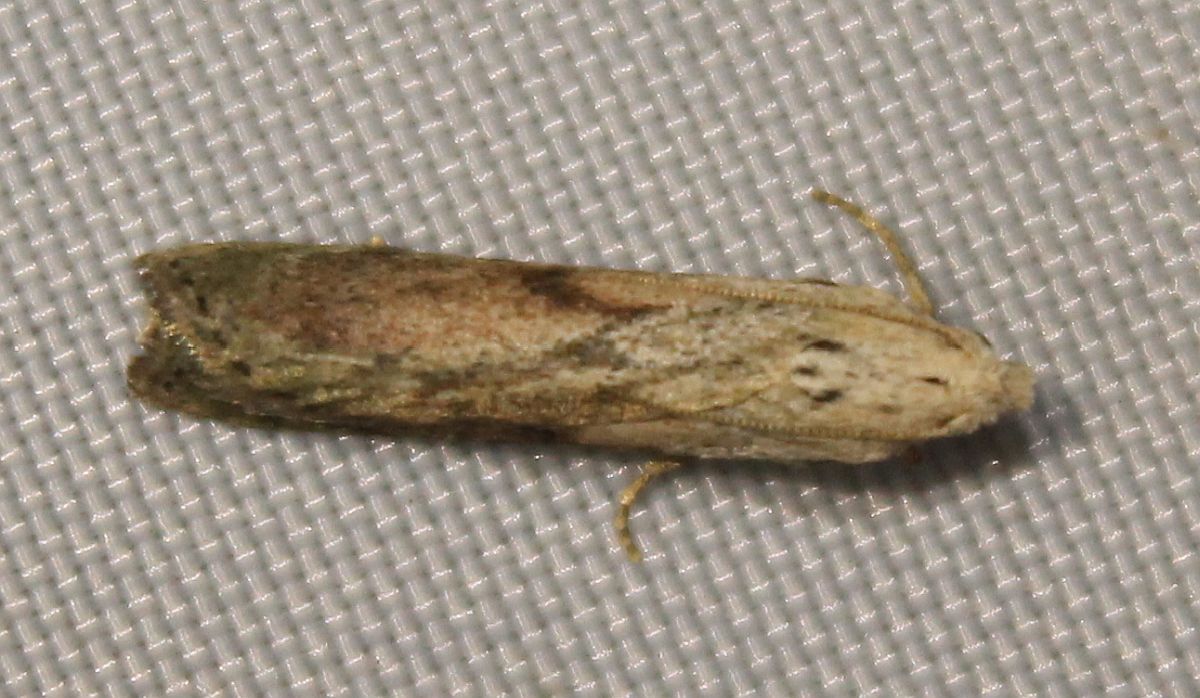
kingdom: Animalia
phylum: Arthropoda
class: Insecta
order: Lepidoptera
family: Pyralidae
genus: Aphomia
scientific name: Aphomia sociella
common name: Bee moth
